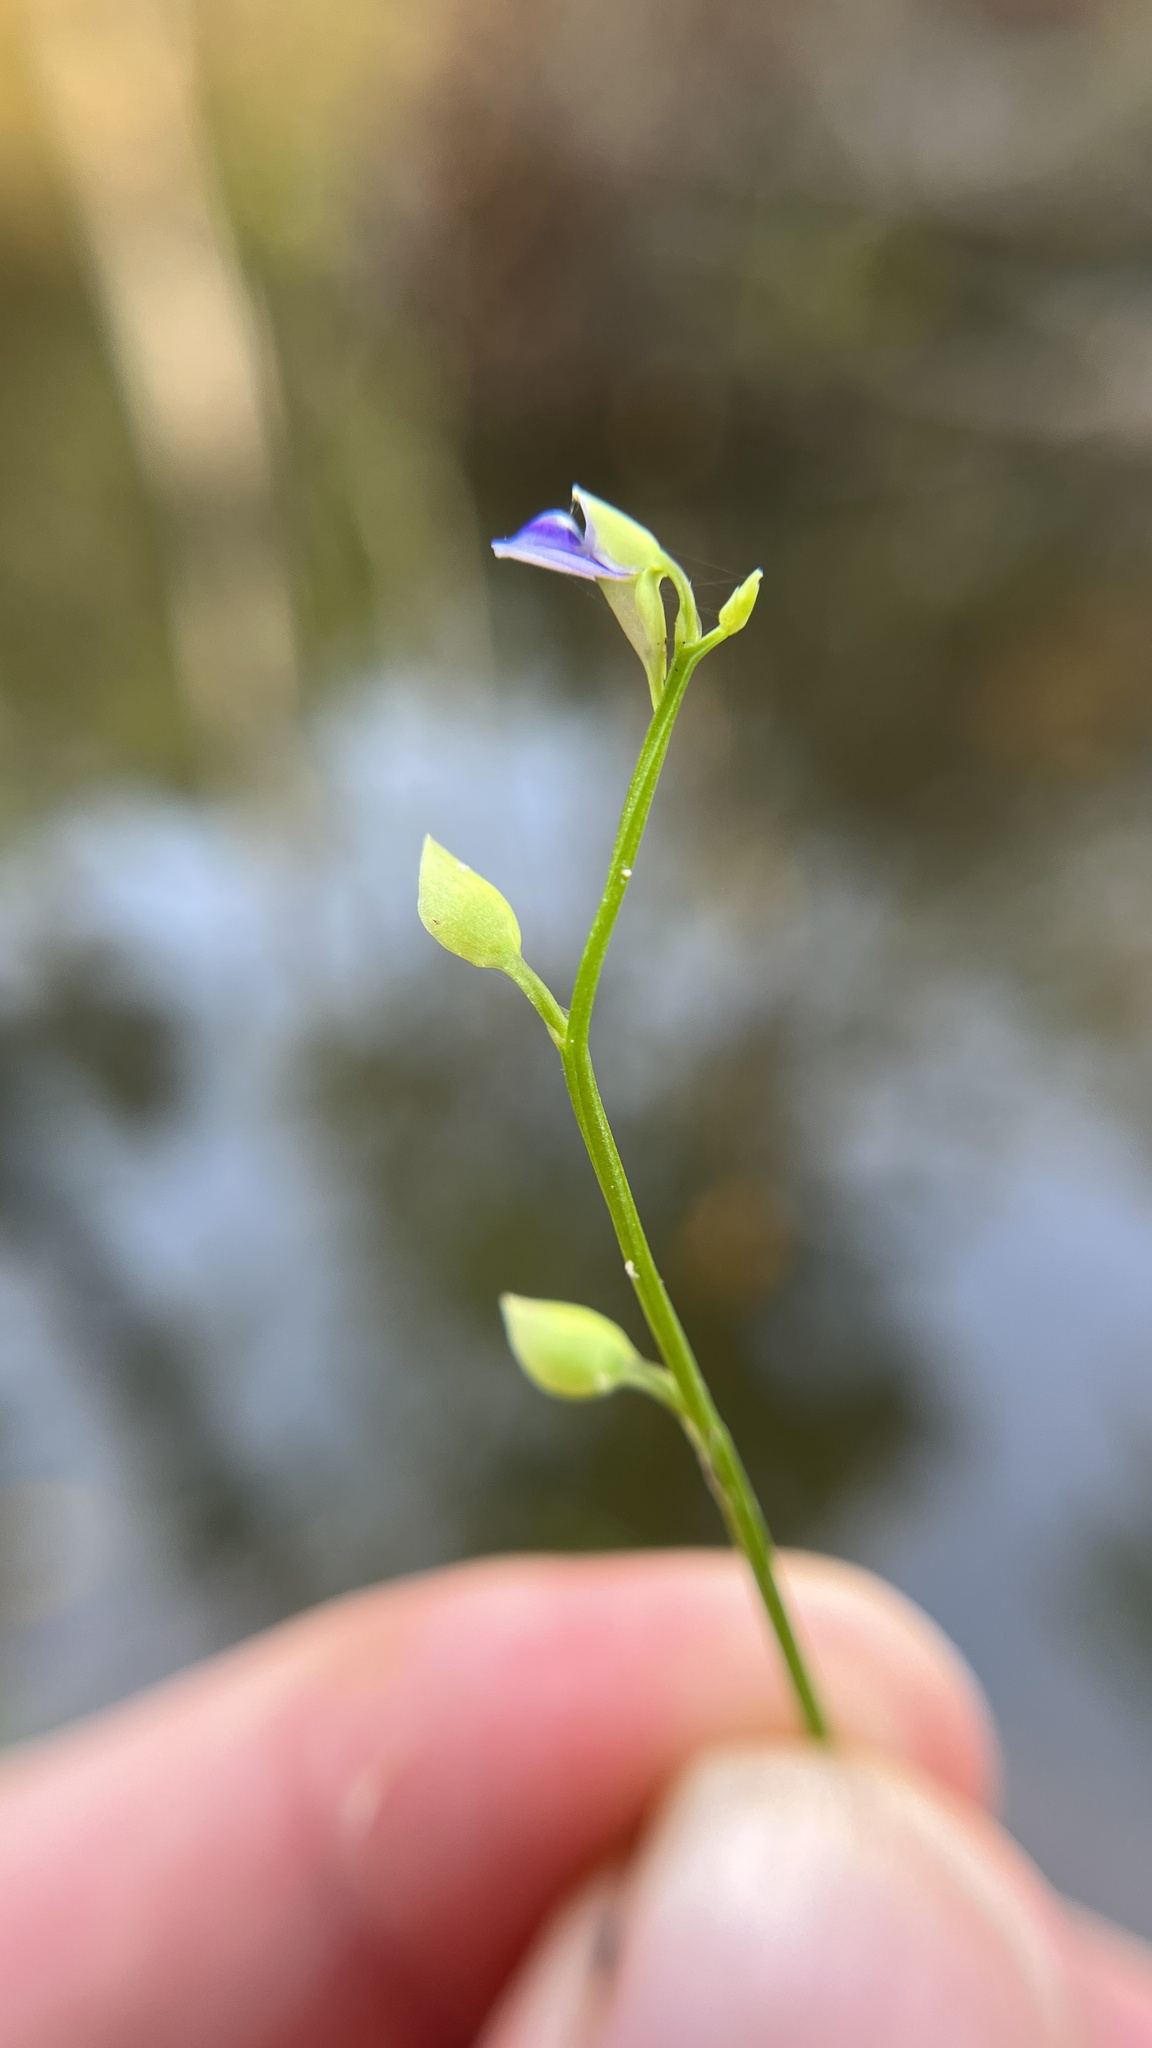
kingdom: Plantae
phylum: Tracheophyta
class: Magnoliopsida
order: Lamiales
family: Lentibulariaceae
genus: Utricularia
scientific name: Utricularia uliginosa
